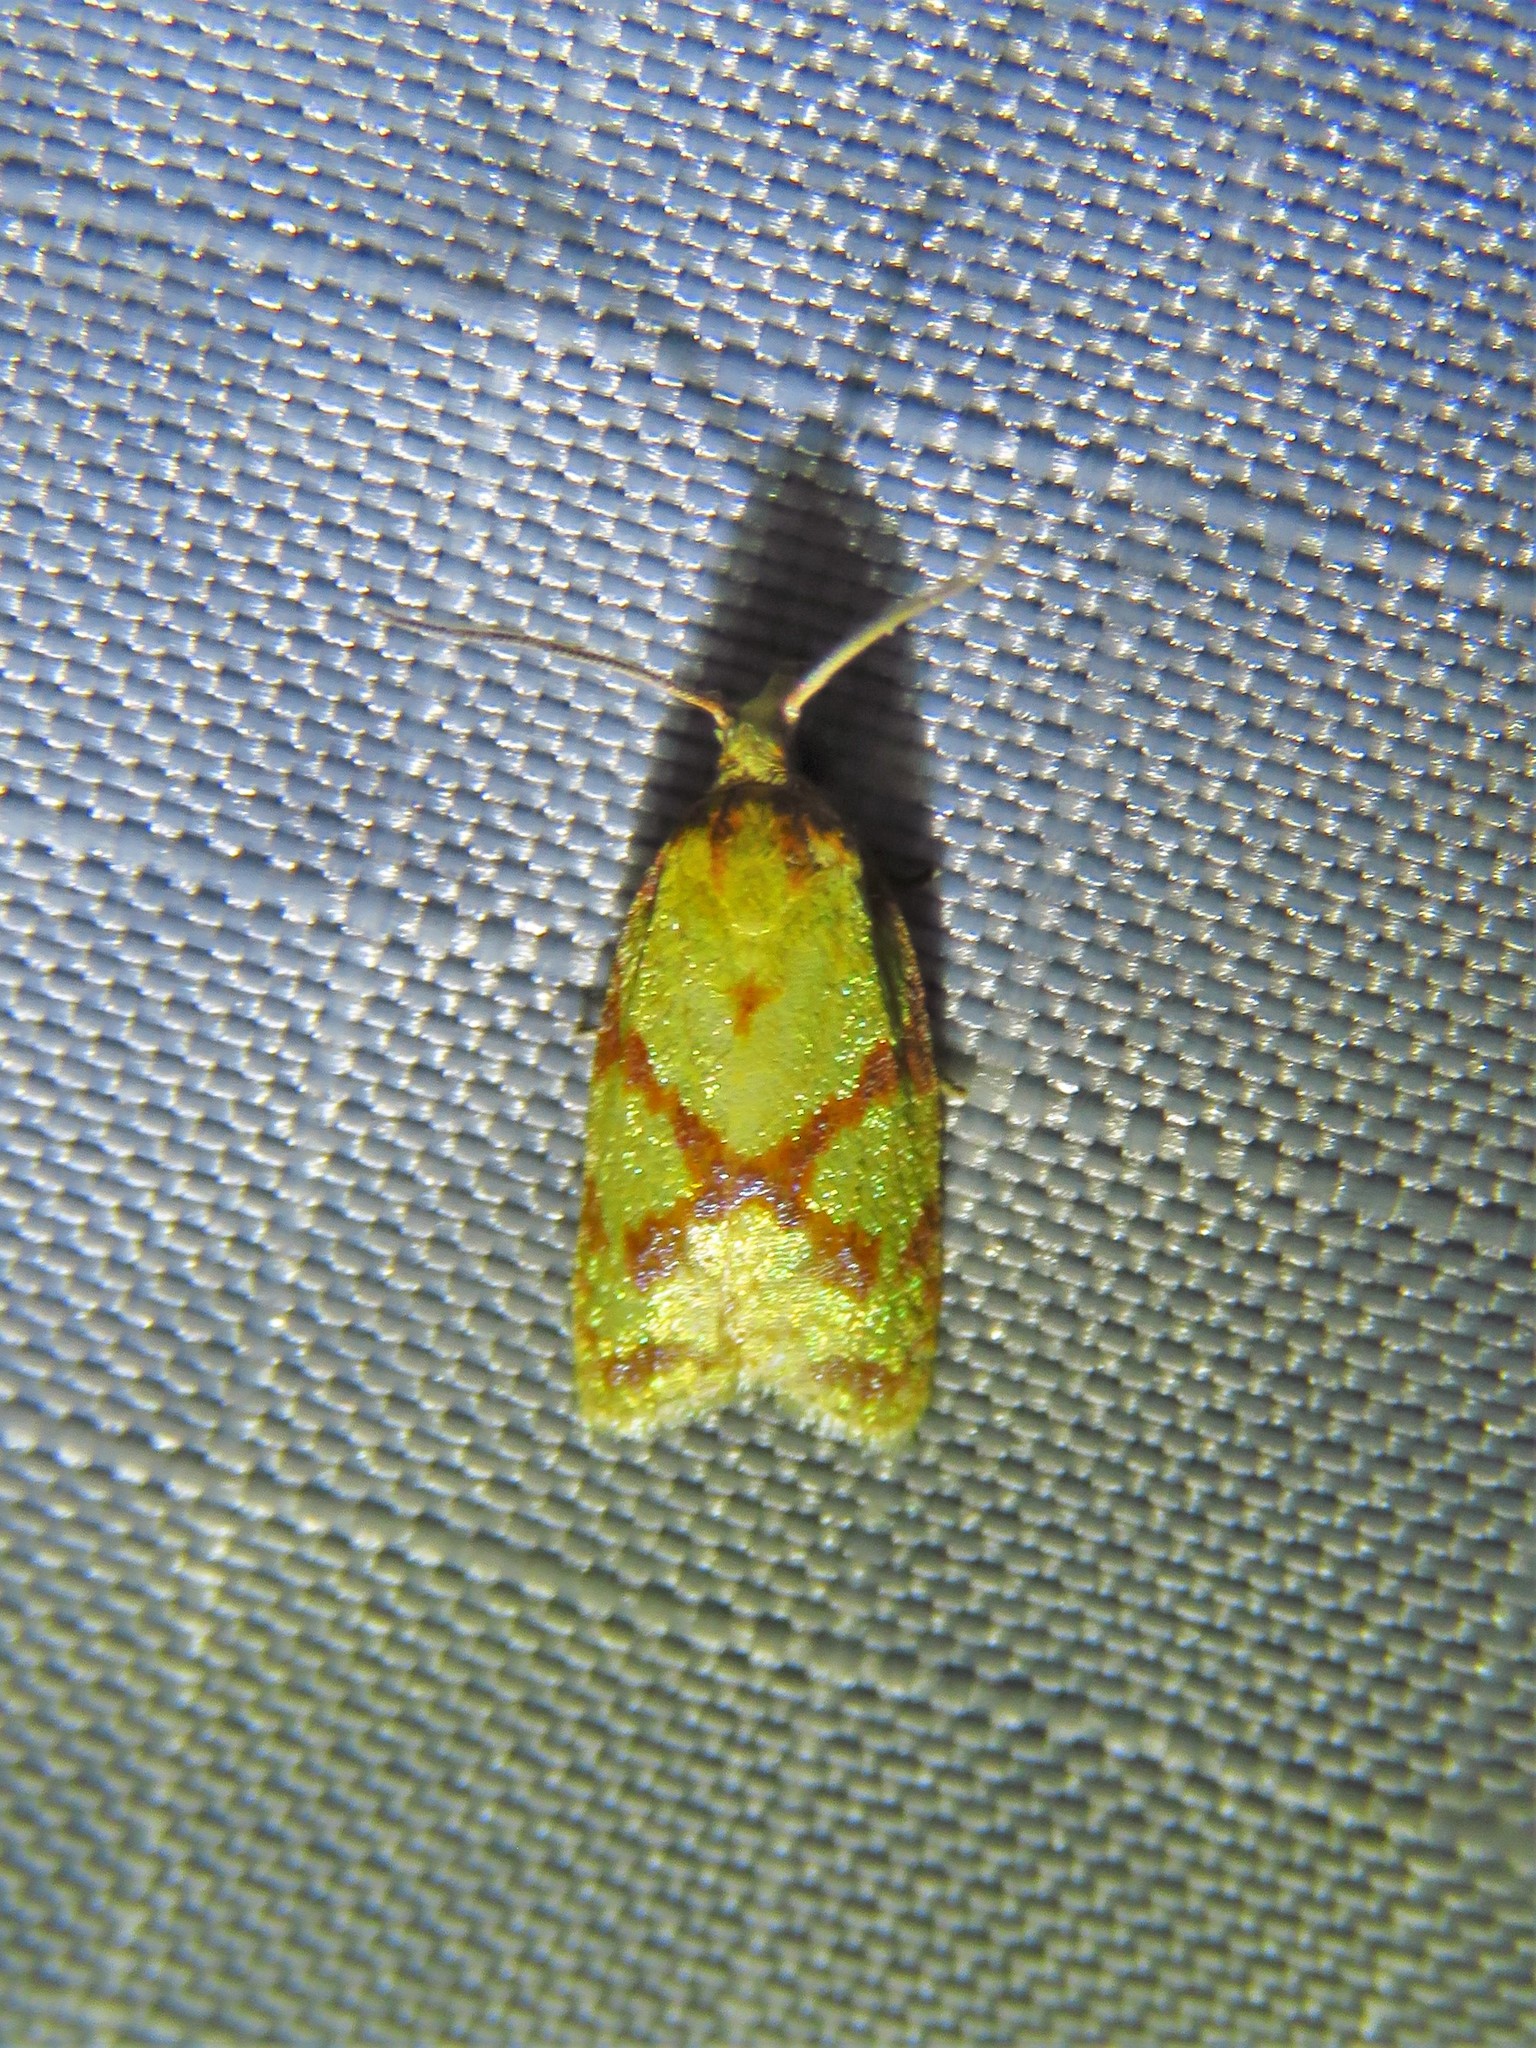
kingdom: Animalia
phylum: Arthropoda
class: Insecta
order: Lepidoptera
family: Tortricidae
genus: Sparganothis
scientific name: Sparganothis sulfureana
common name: Sparganothis fruitworm moth
